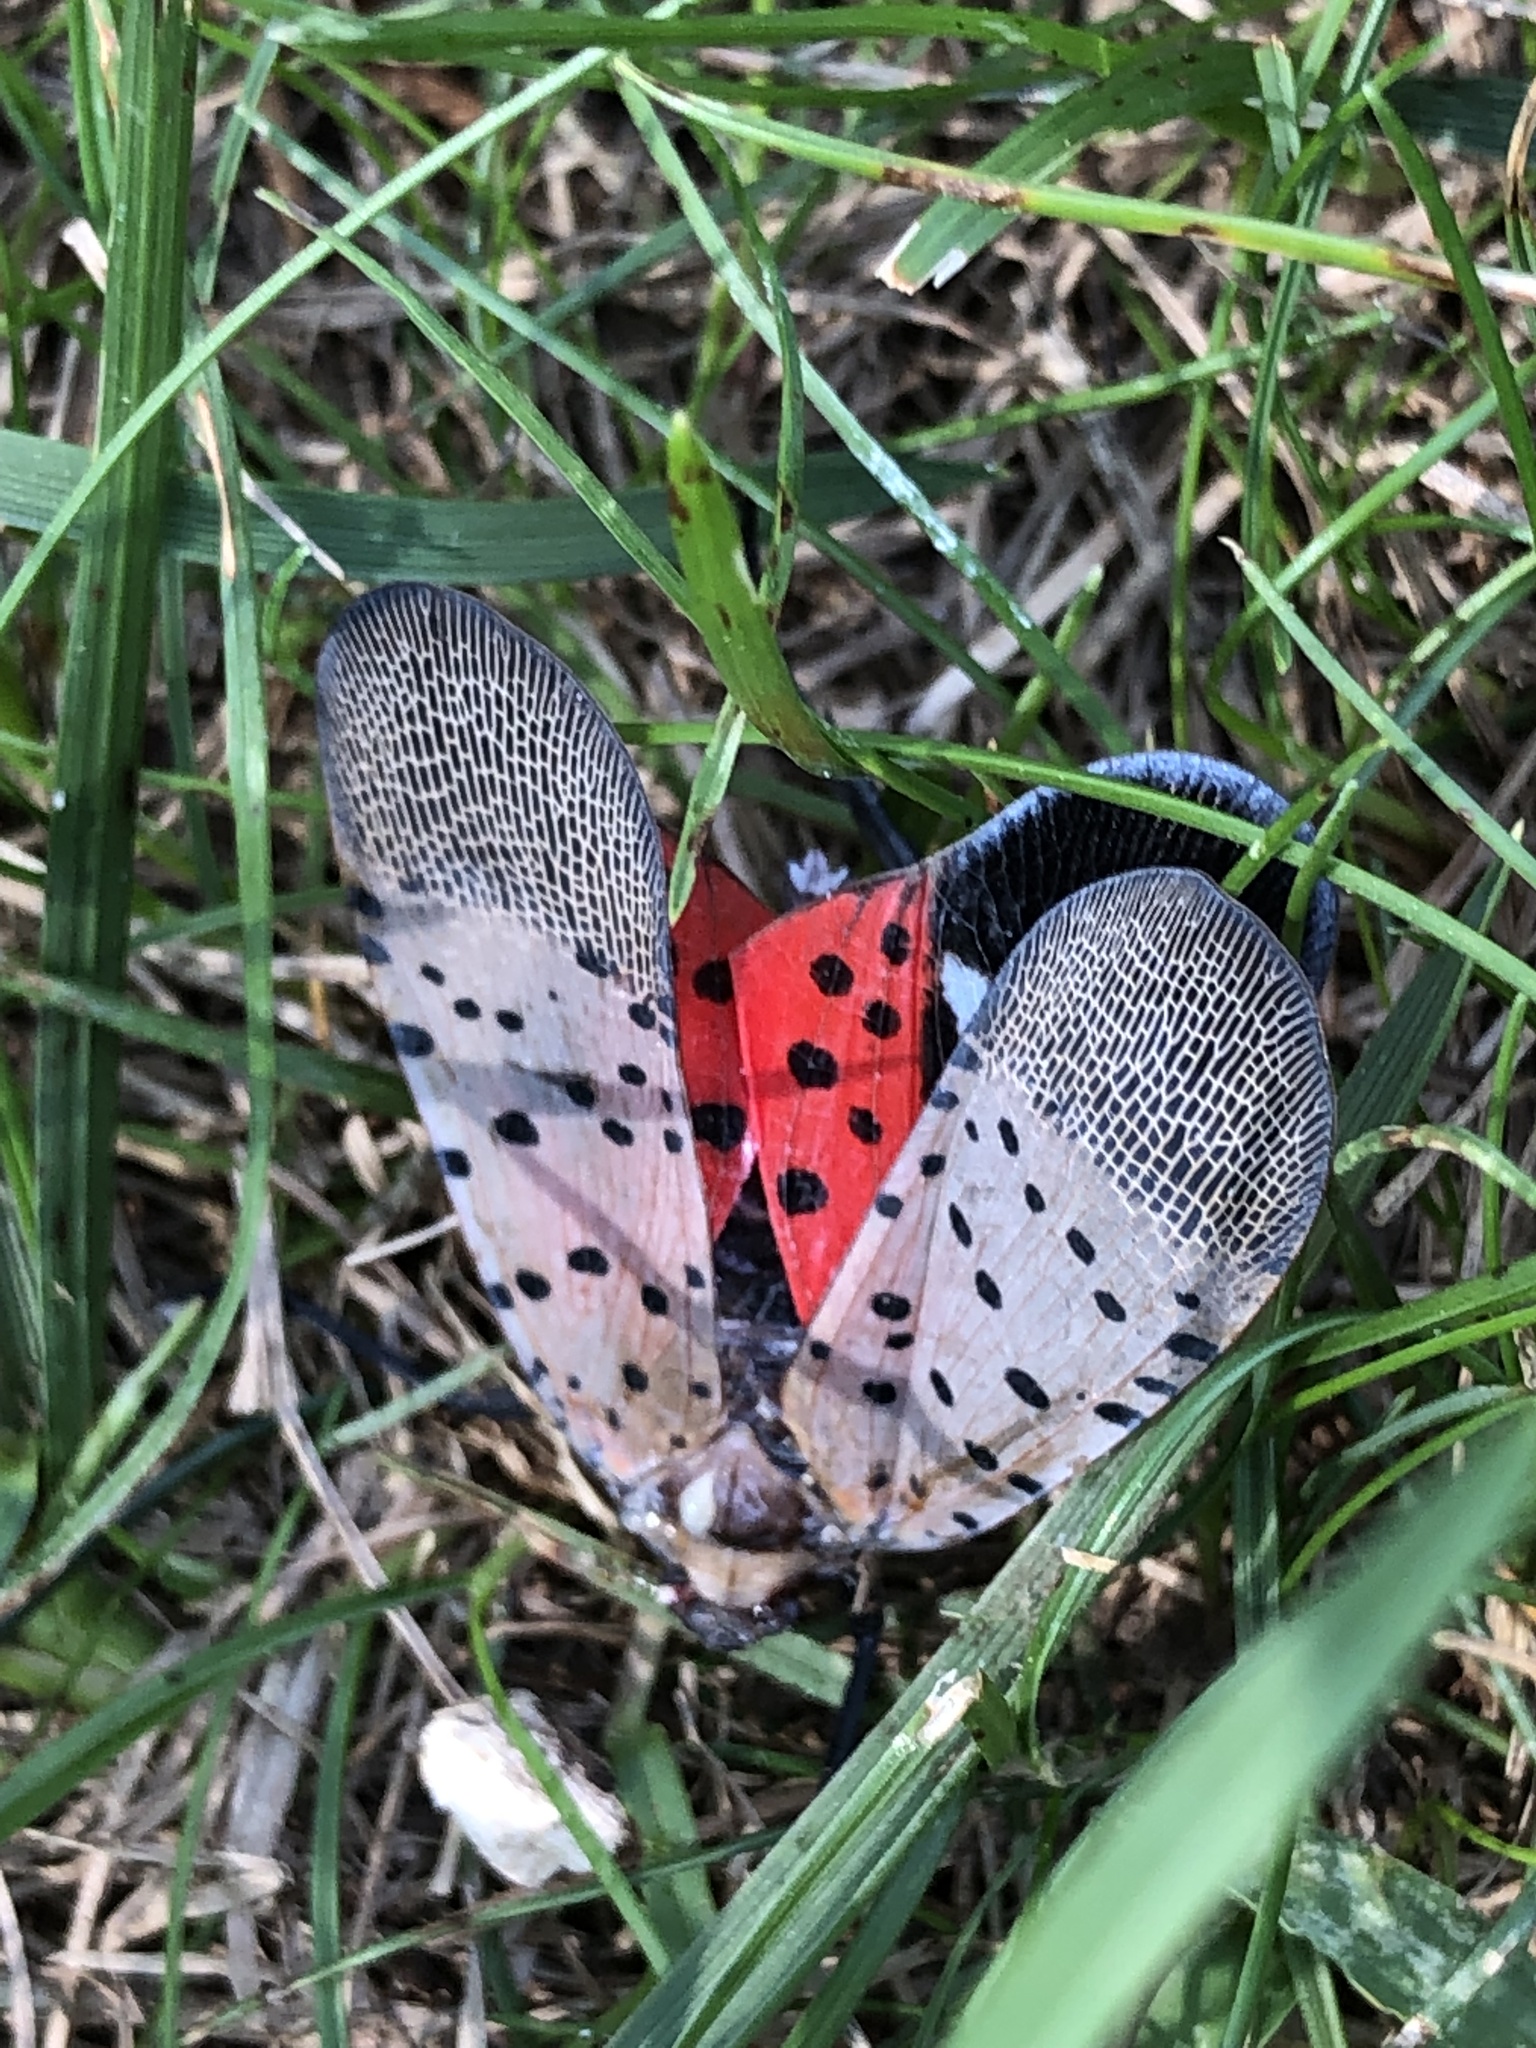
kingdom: Animalia
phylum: Arthropoda
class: Insecta
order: Hemiptera
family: Fulgoridae
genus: Lycorma
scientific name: Lycorma delicatula
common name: Spotted lanternfly
